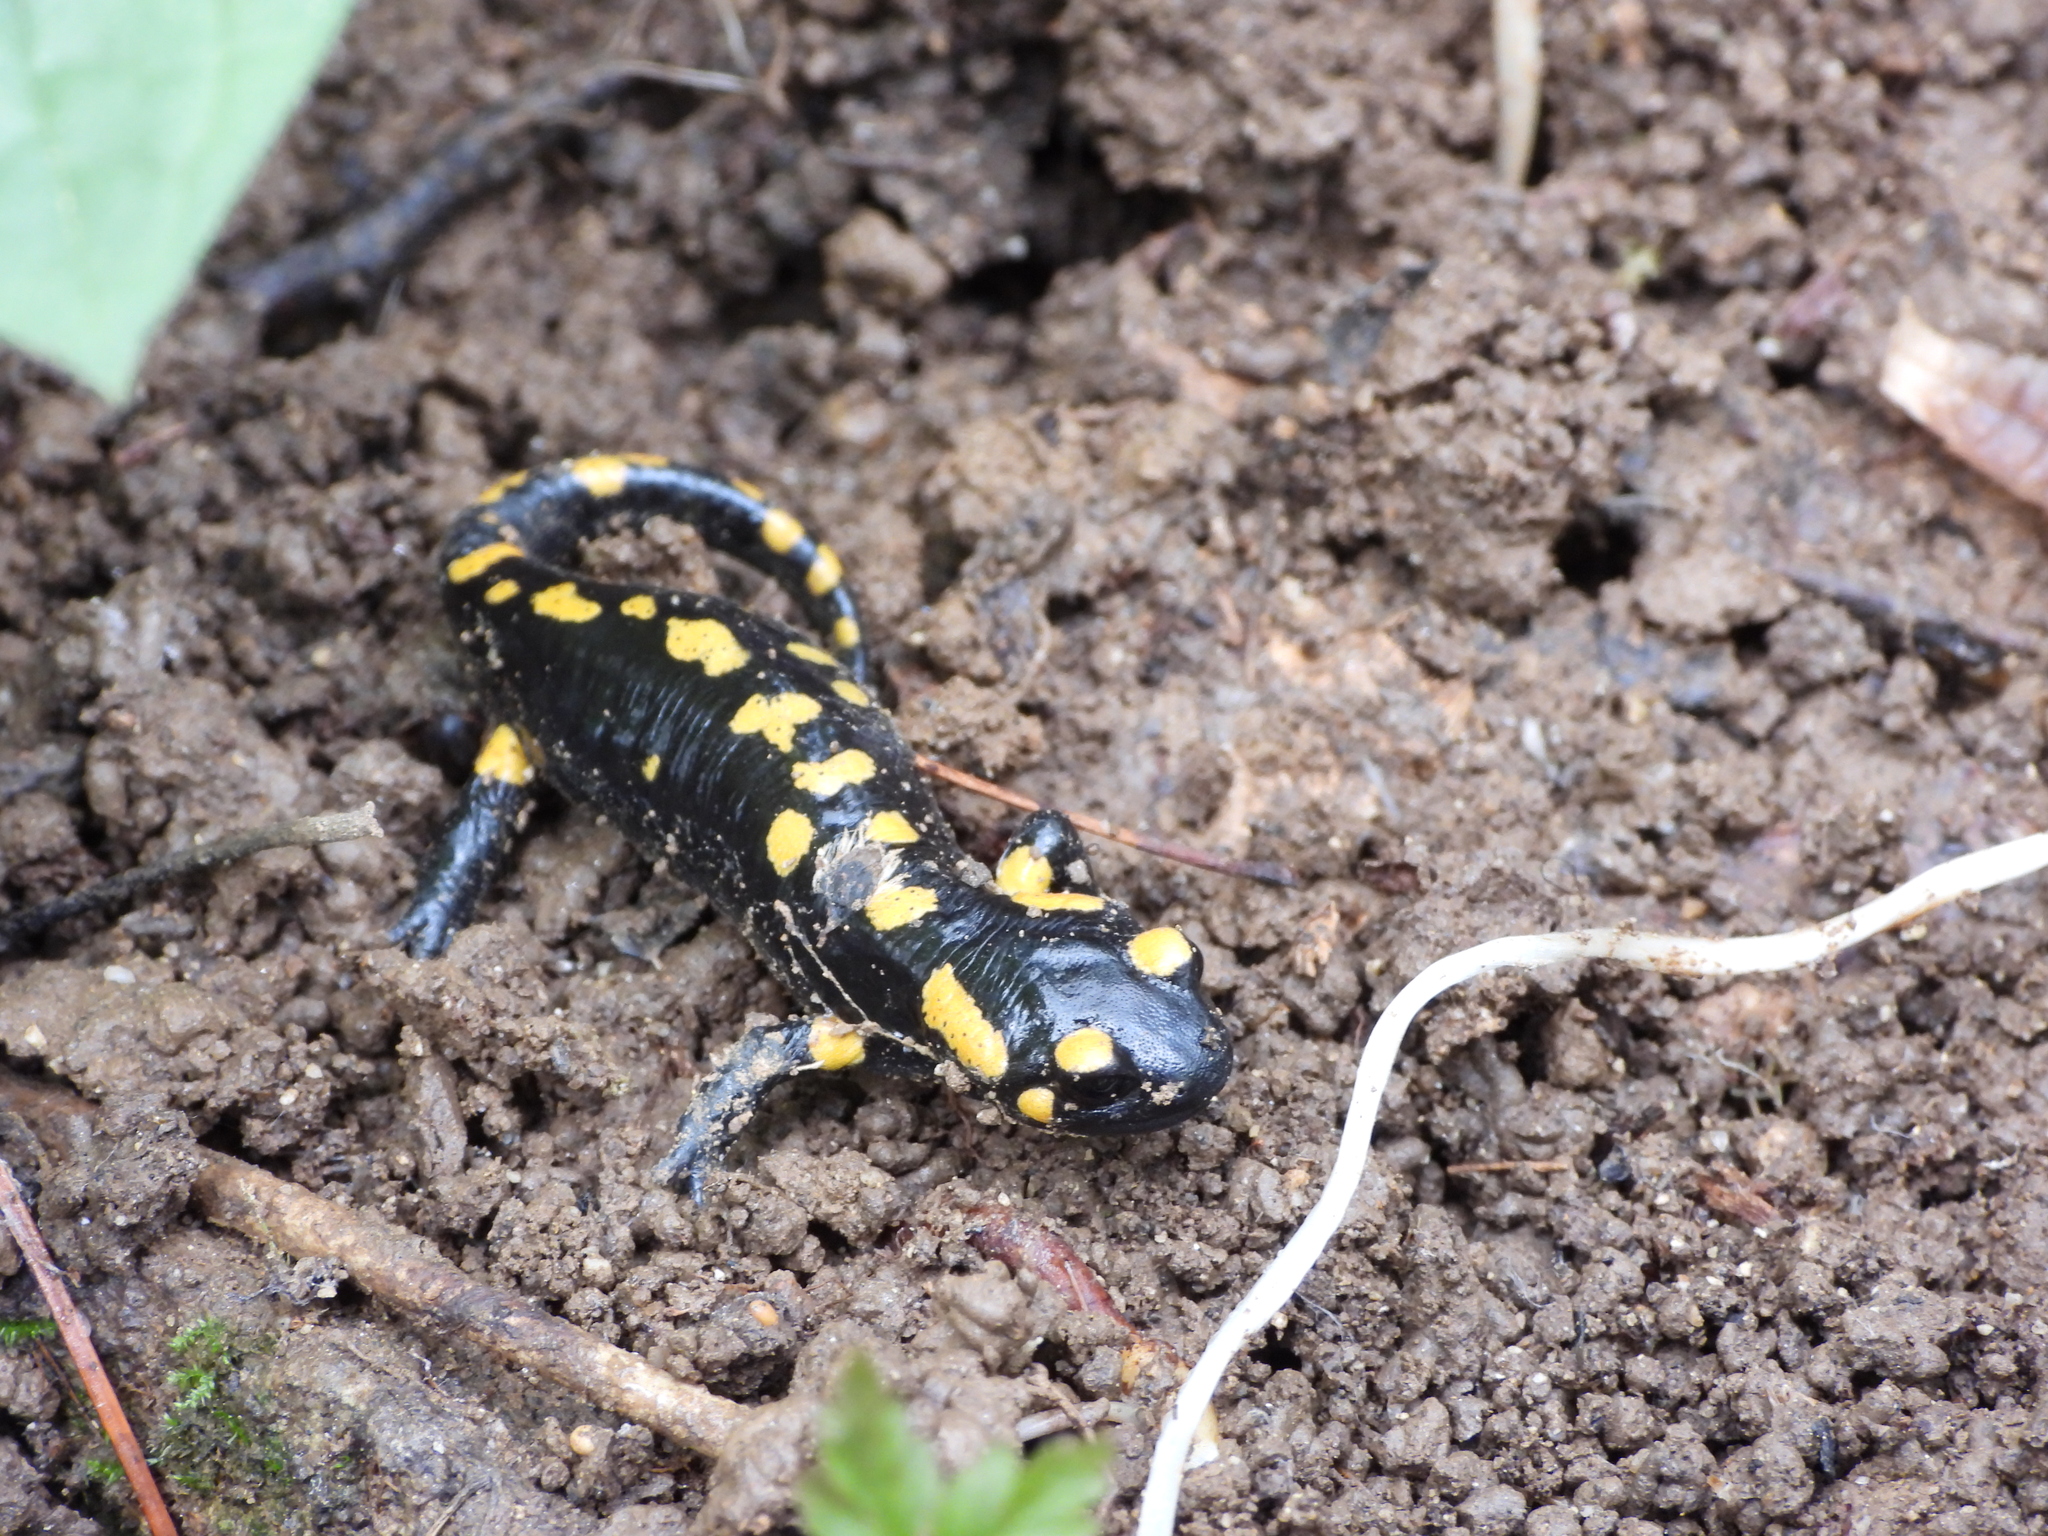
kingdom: Animalia
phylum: Chordata
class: Amphibia
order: Caudata
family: Salamandridae
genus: Salamandra
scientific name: Salamandra salamandra
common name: Fire salamander
